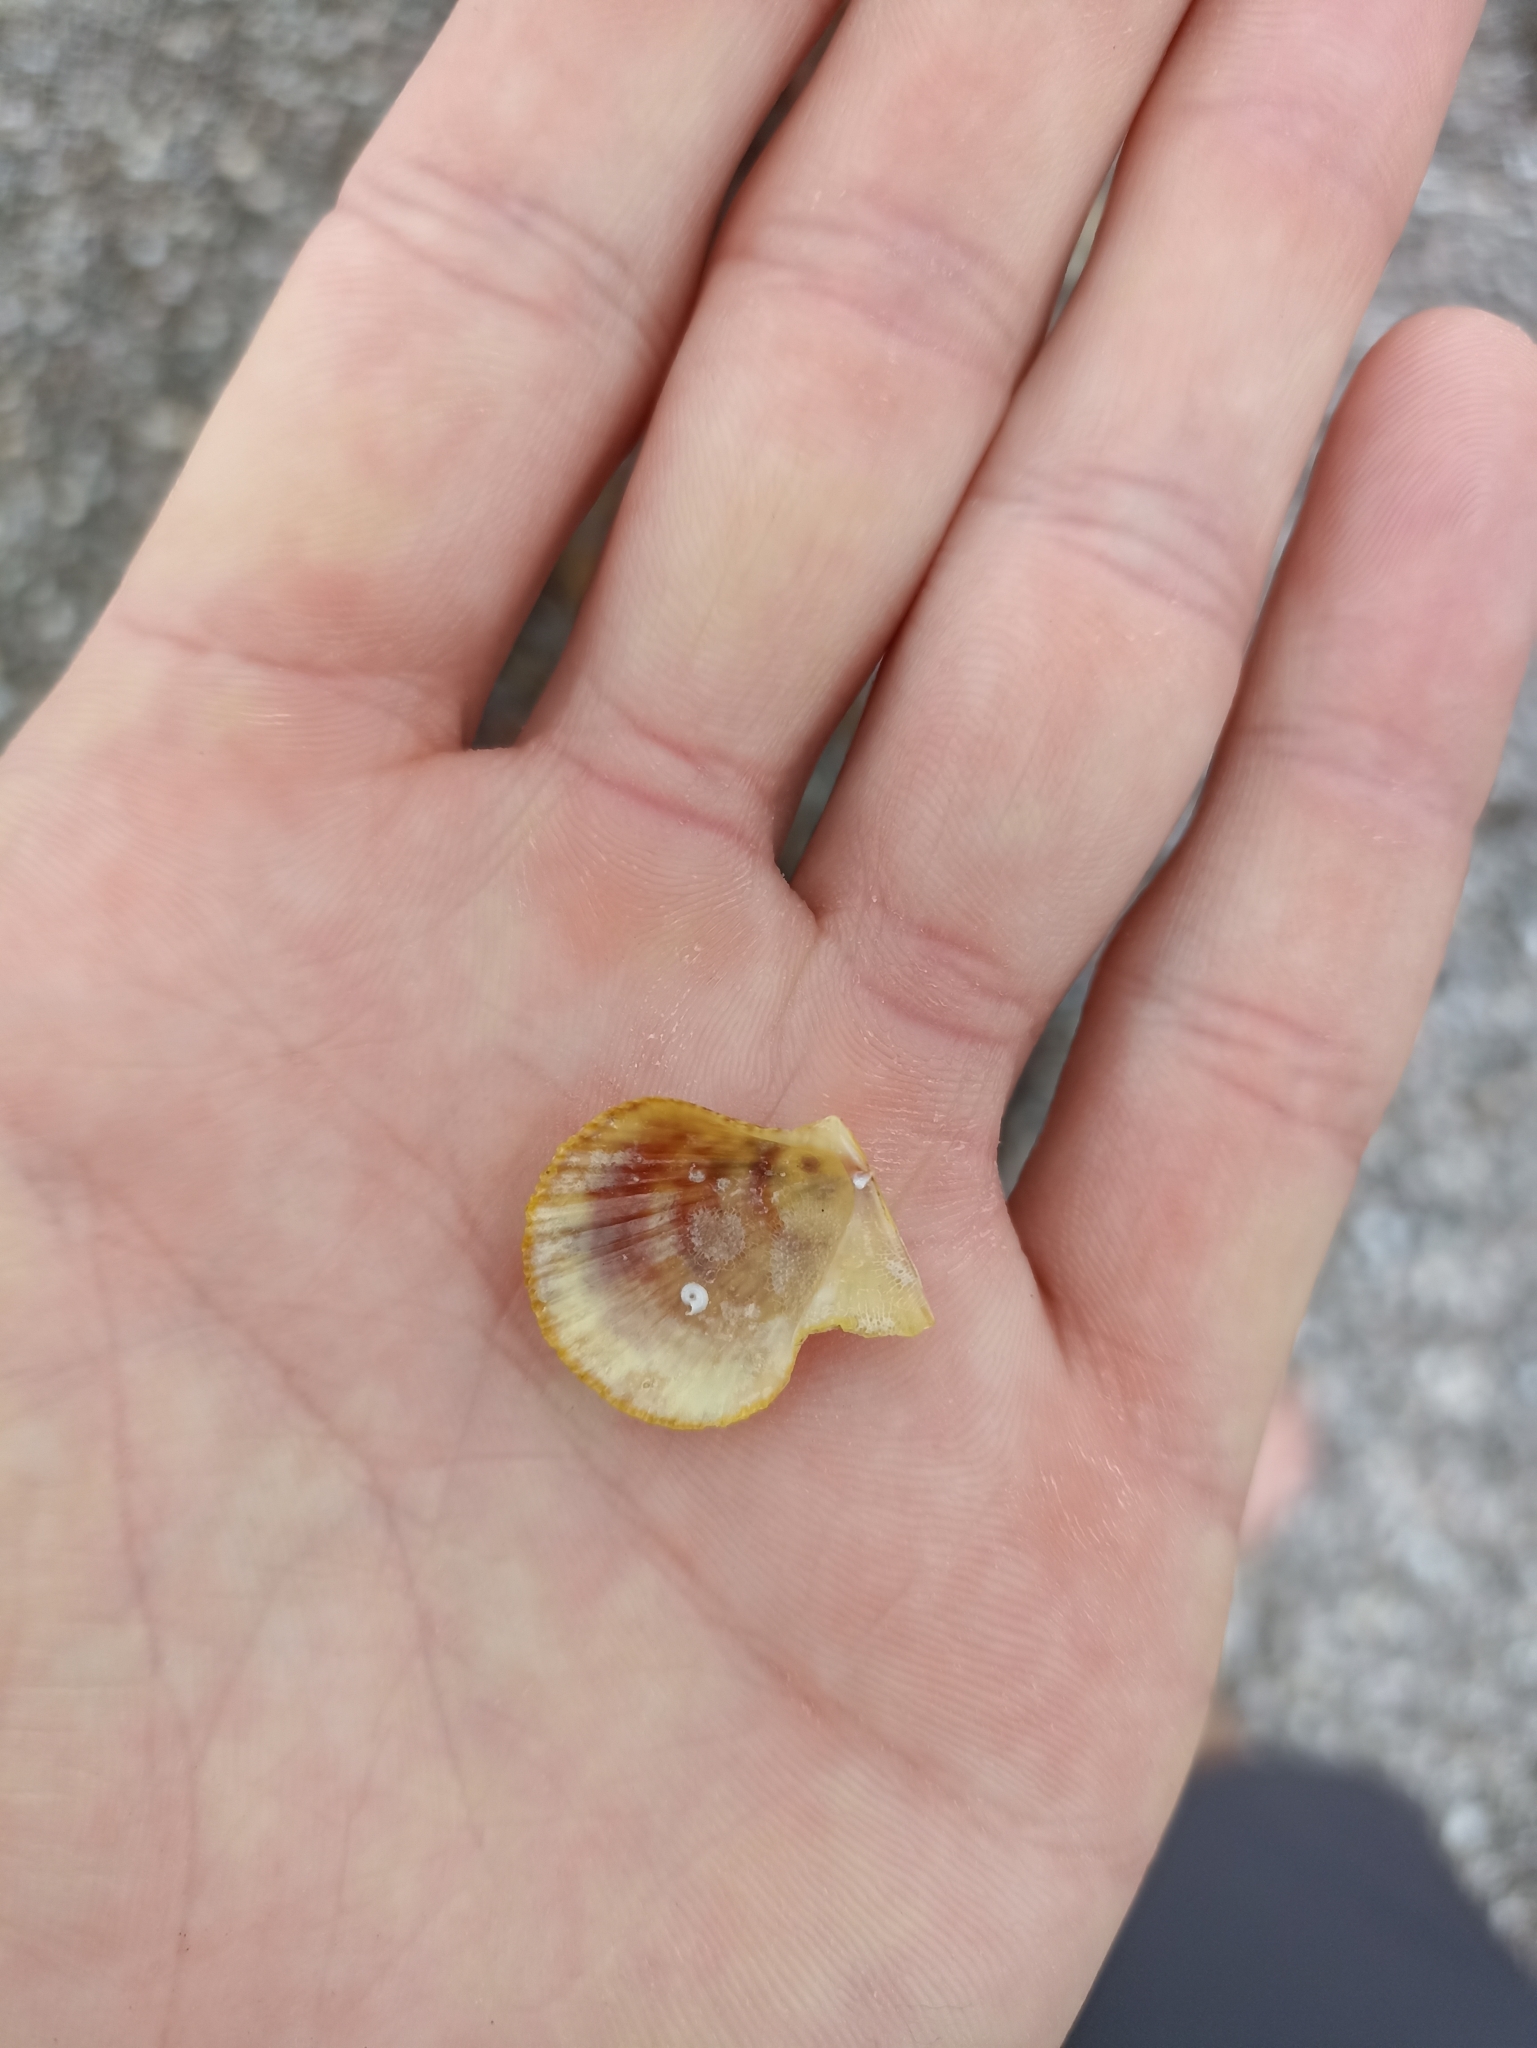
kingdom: Animalia
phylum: Mollusca
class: Bivalvia
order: Pectinida
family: Pectinidae
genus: Talochlamys
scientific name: Talochlamys zelandiae
